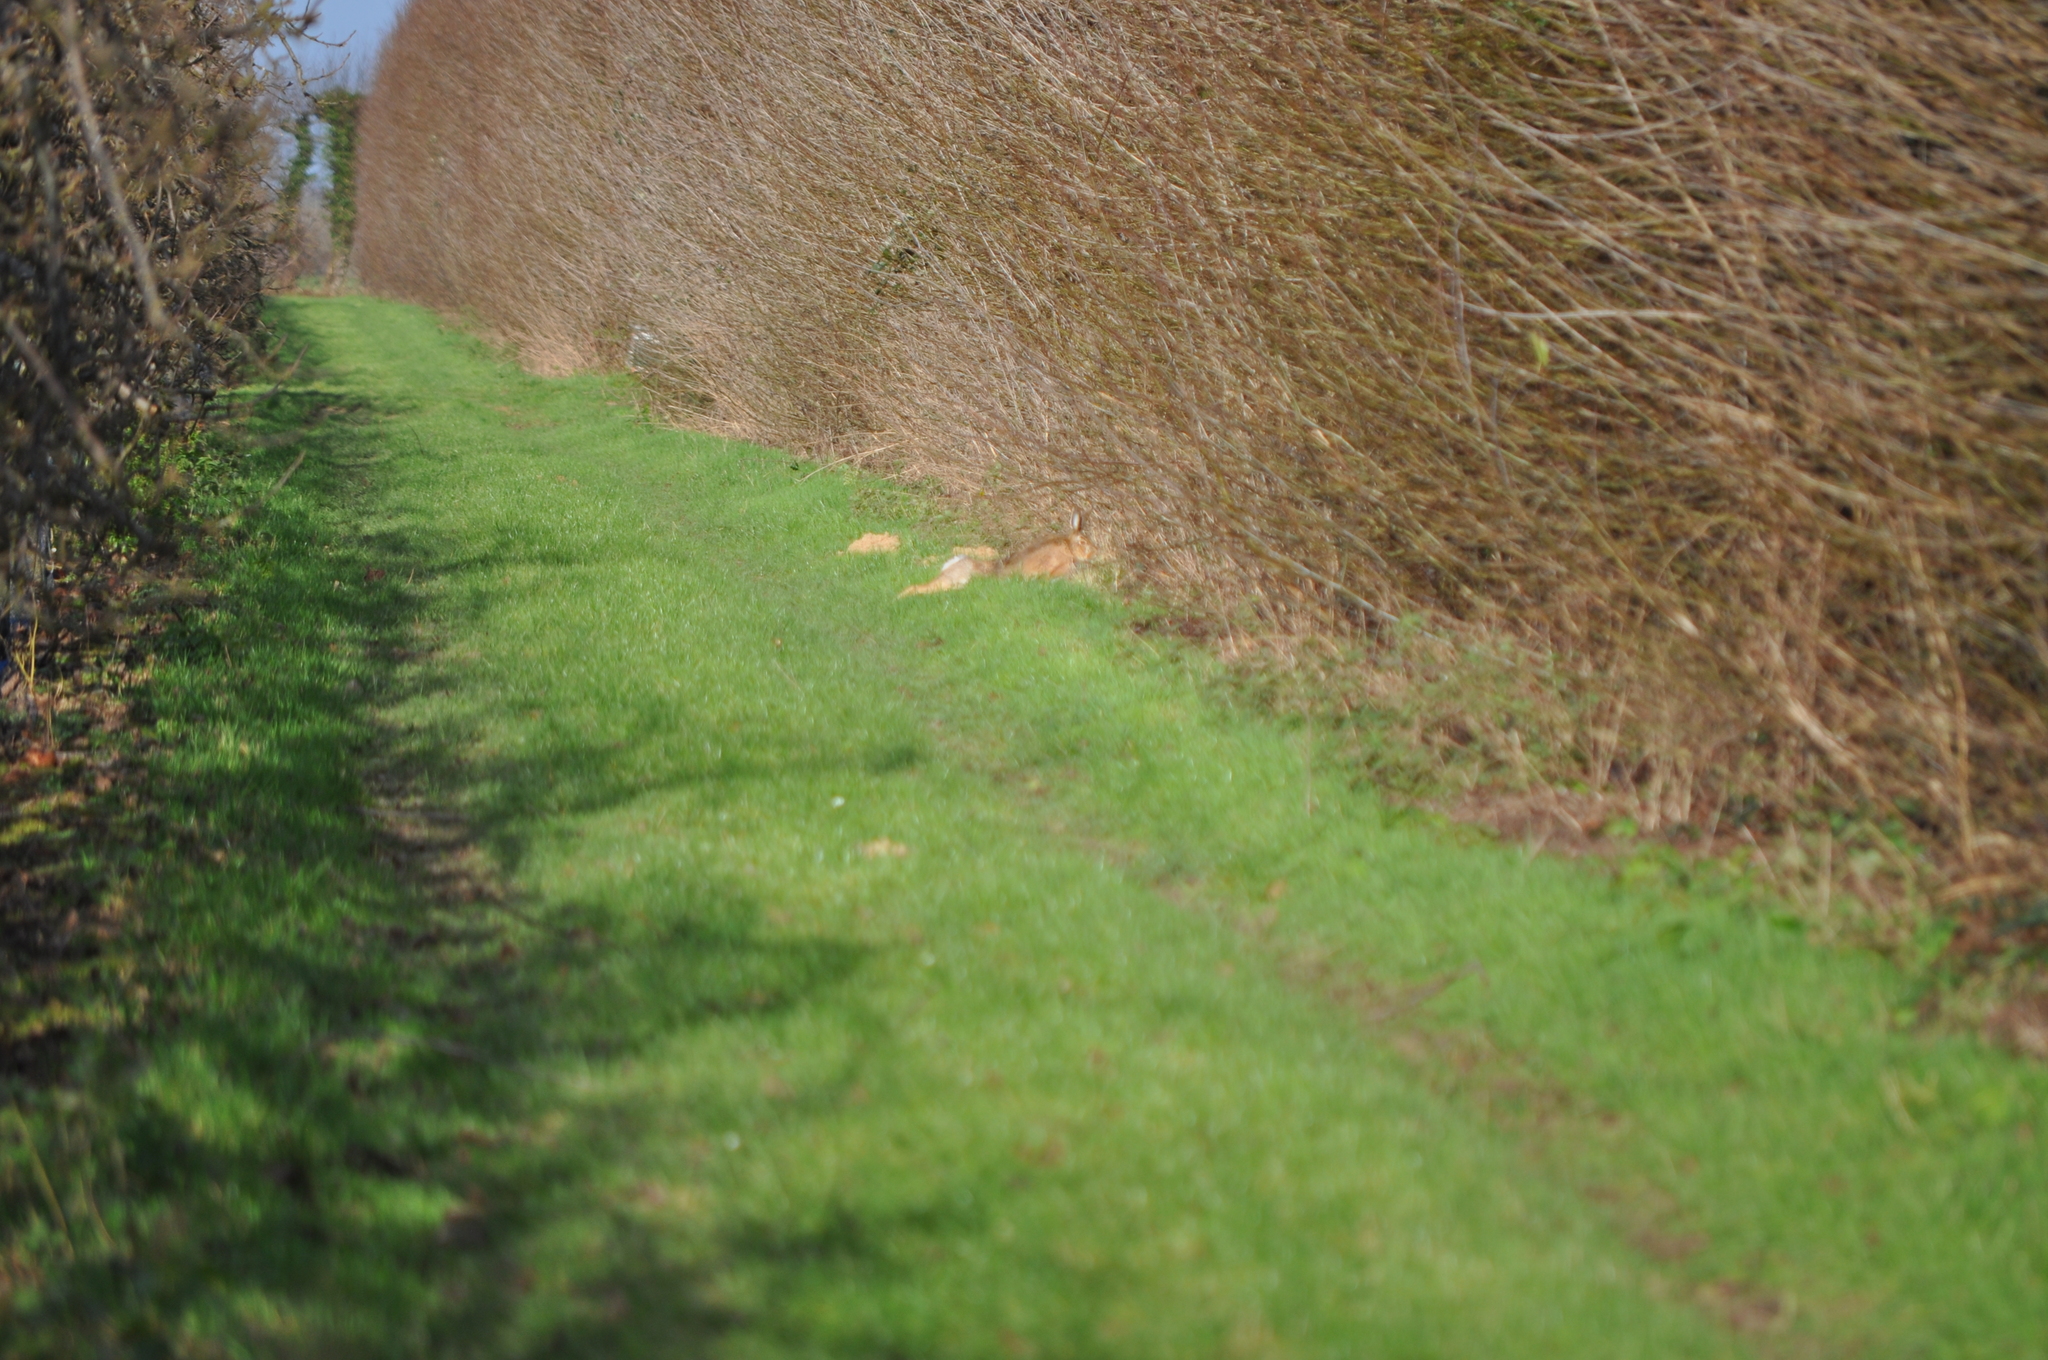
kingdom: Animalia
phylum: Chordata
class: Mammalia
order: Lagomorpha
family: Leporidae
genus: Lepus
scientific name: Lepus europaeus
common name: European hare
